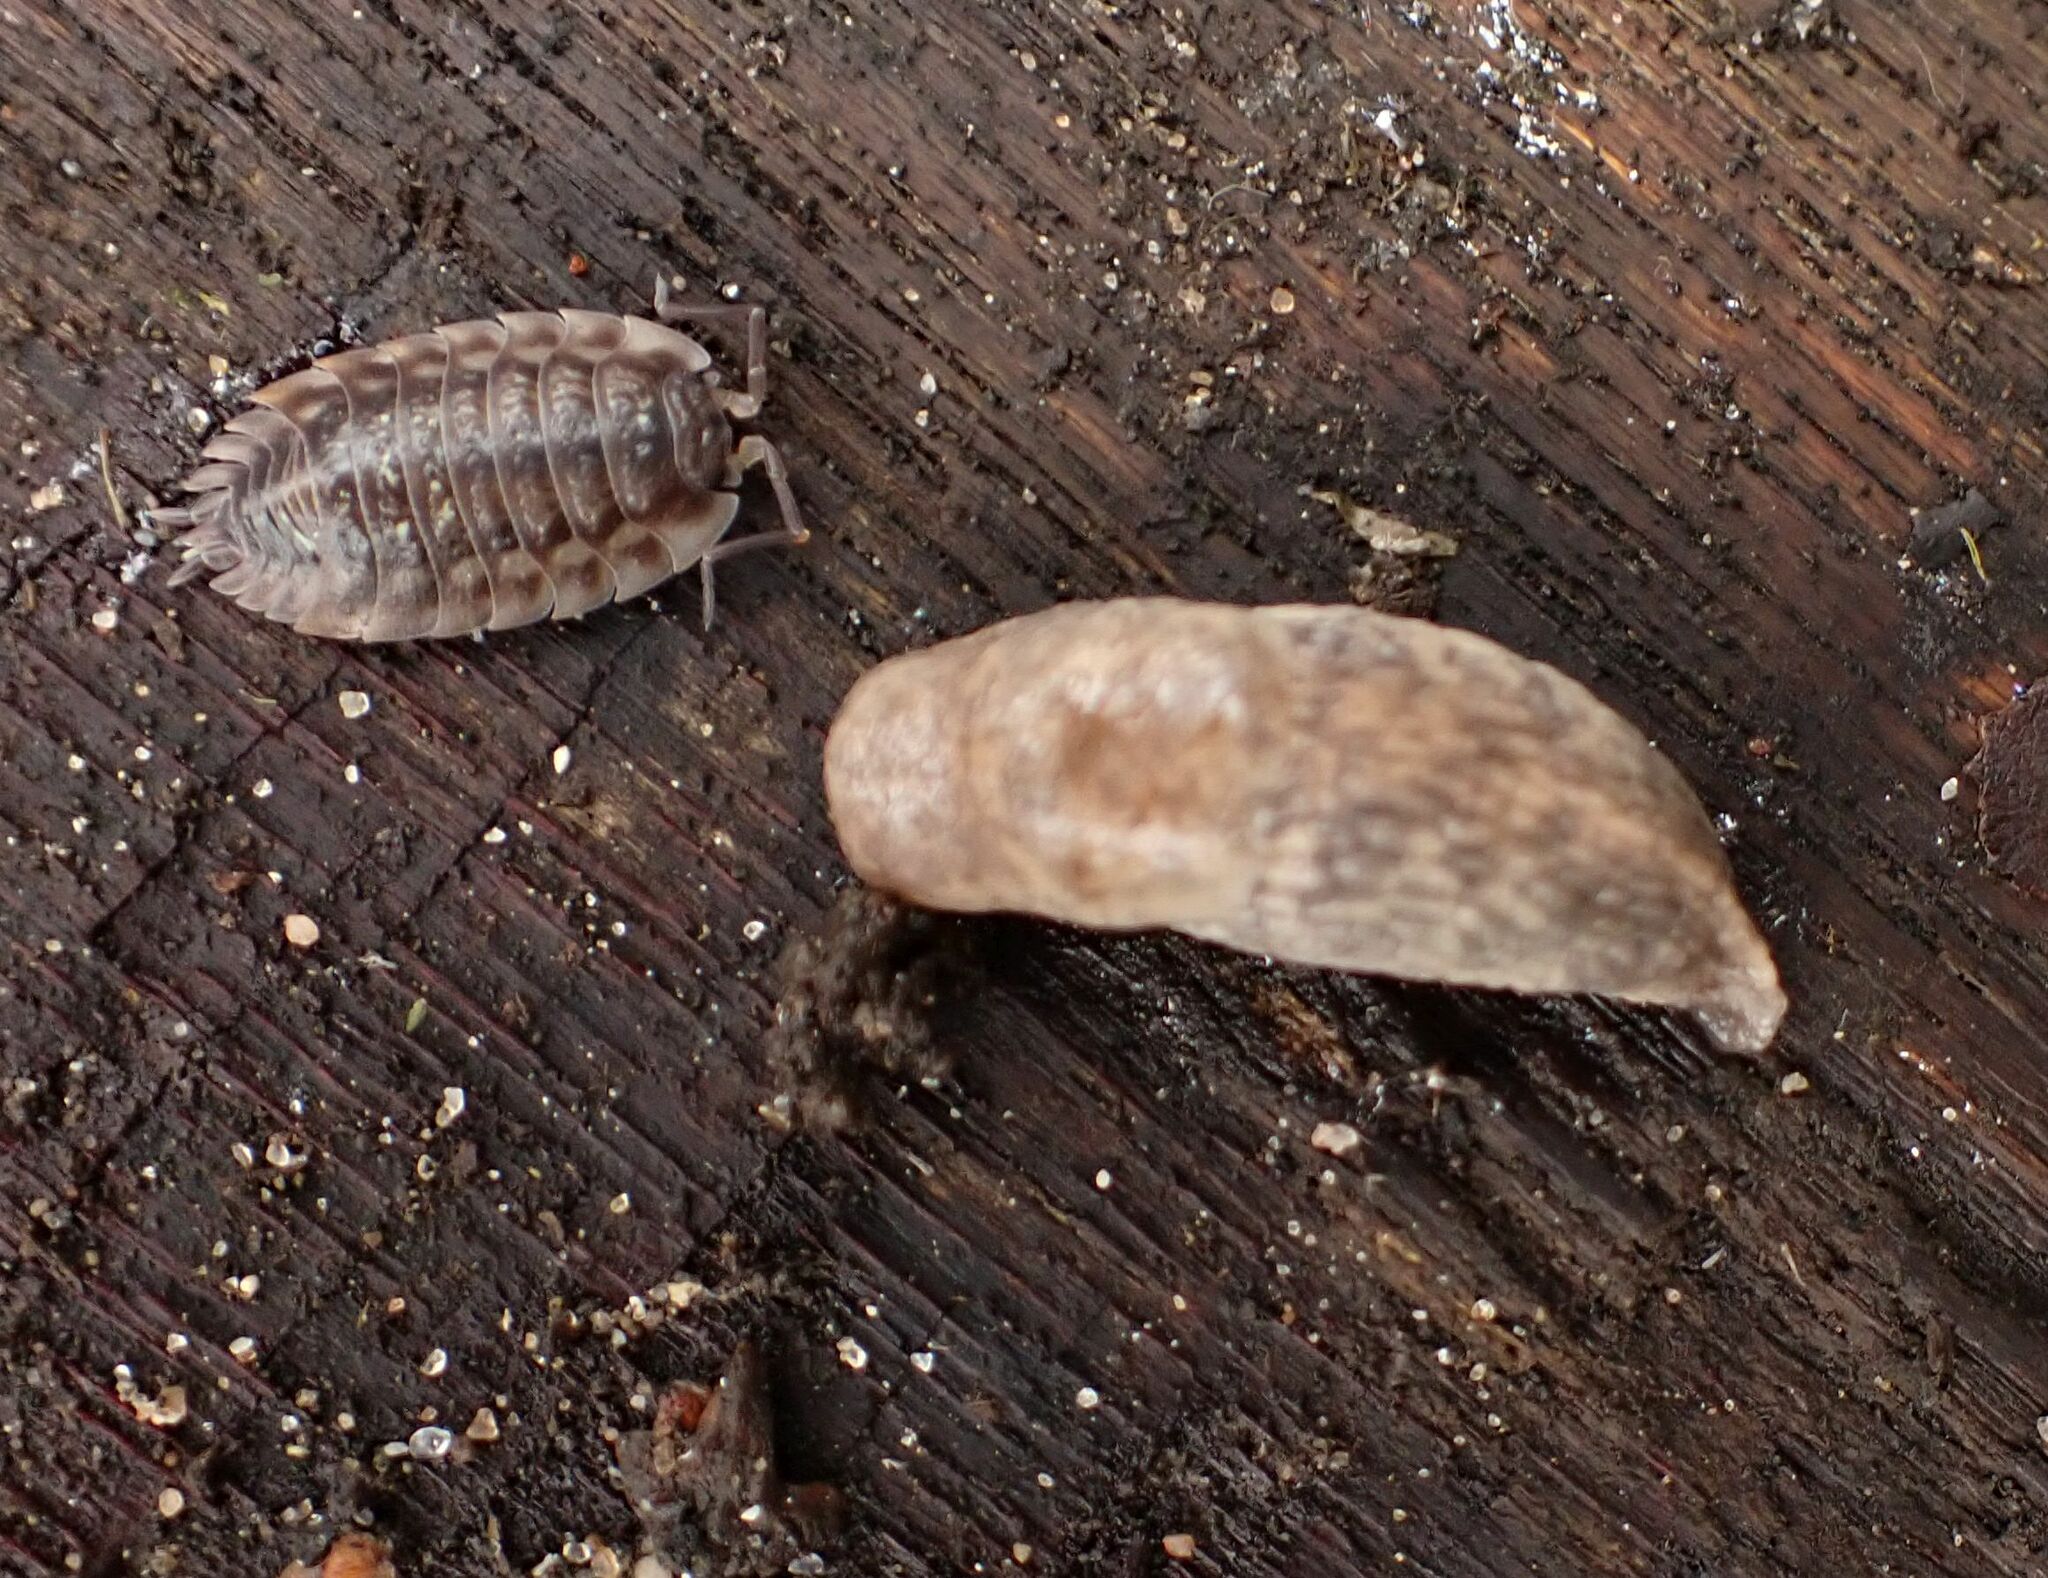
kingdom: Animalia
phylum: Mollusca
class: Gastropoda
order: Stylommatophora
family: Agriolimacidae
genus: Deroceras
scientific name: Deroceras reticulatum
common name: Gray field slug
